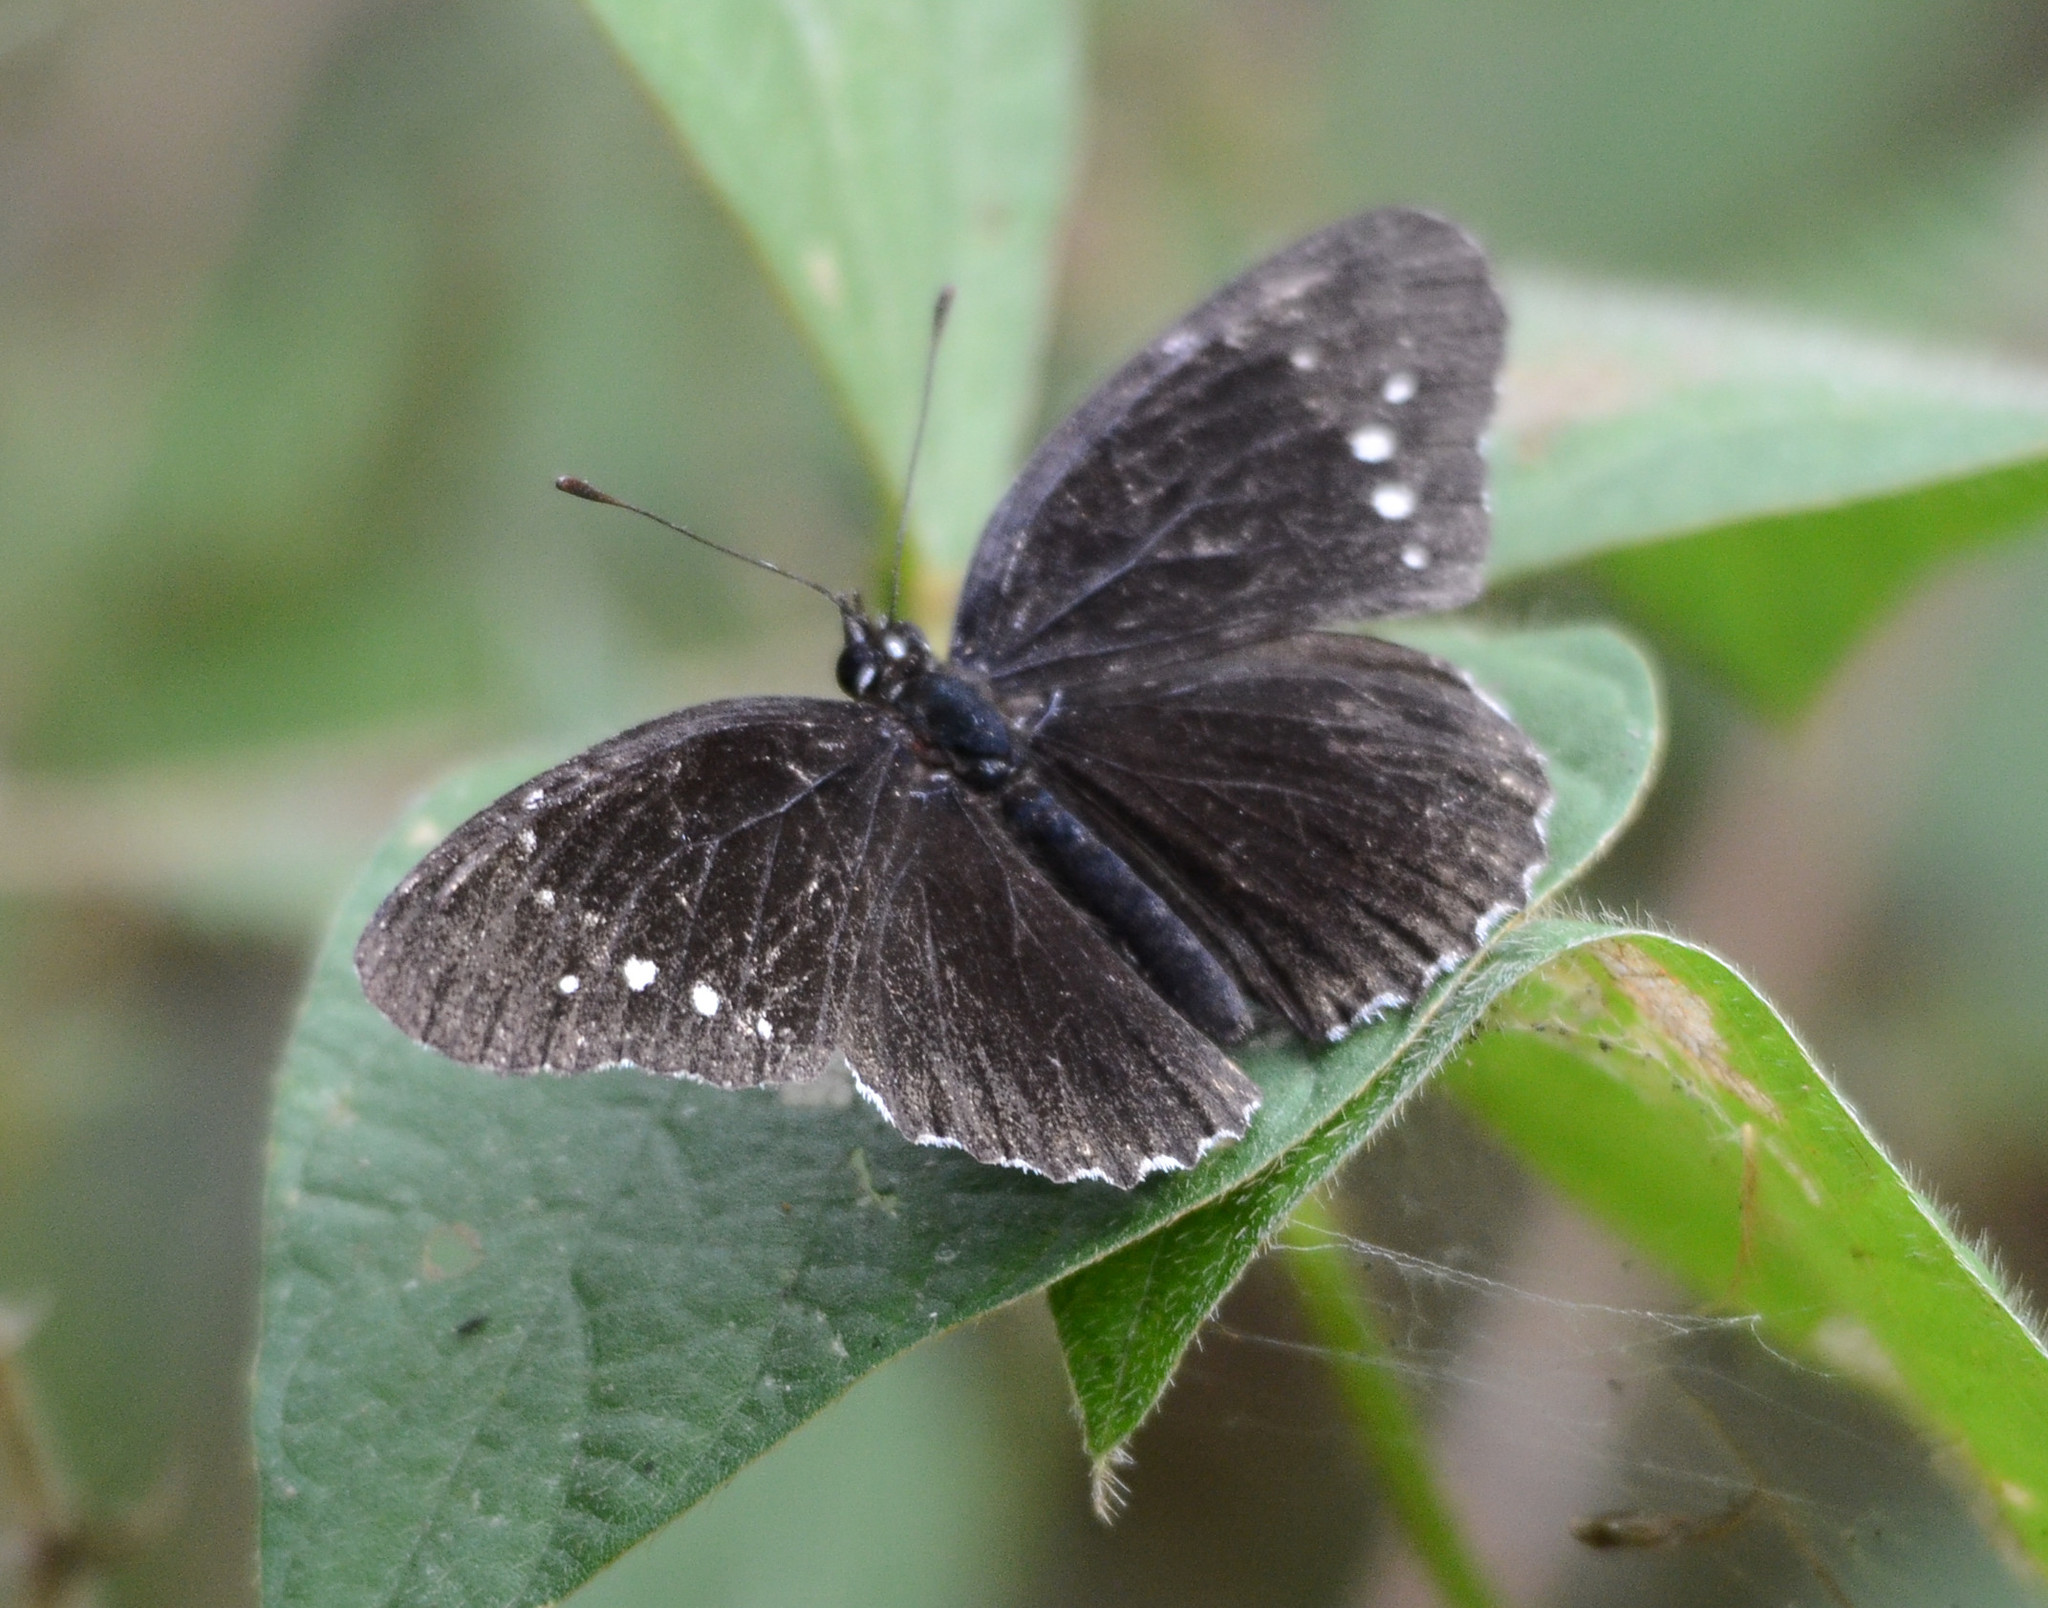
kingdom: Animalia
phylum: Arthropoda
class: Insecta
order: Lepidoptera
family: Nymphalidae
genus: Chlosyne
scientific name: Chlosyne hippodrome
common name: Simple patch
